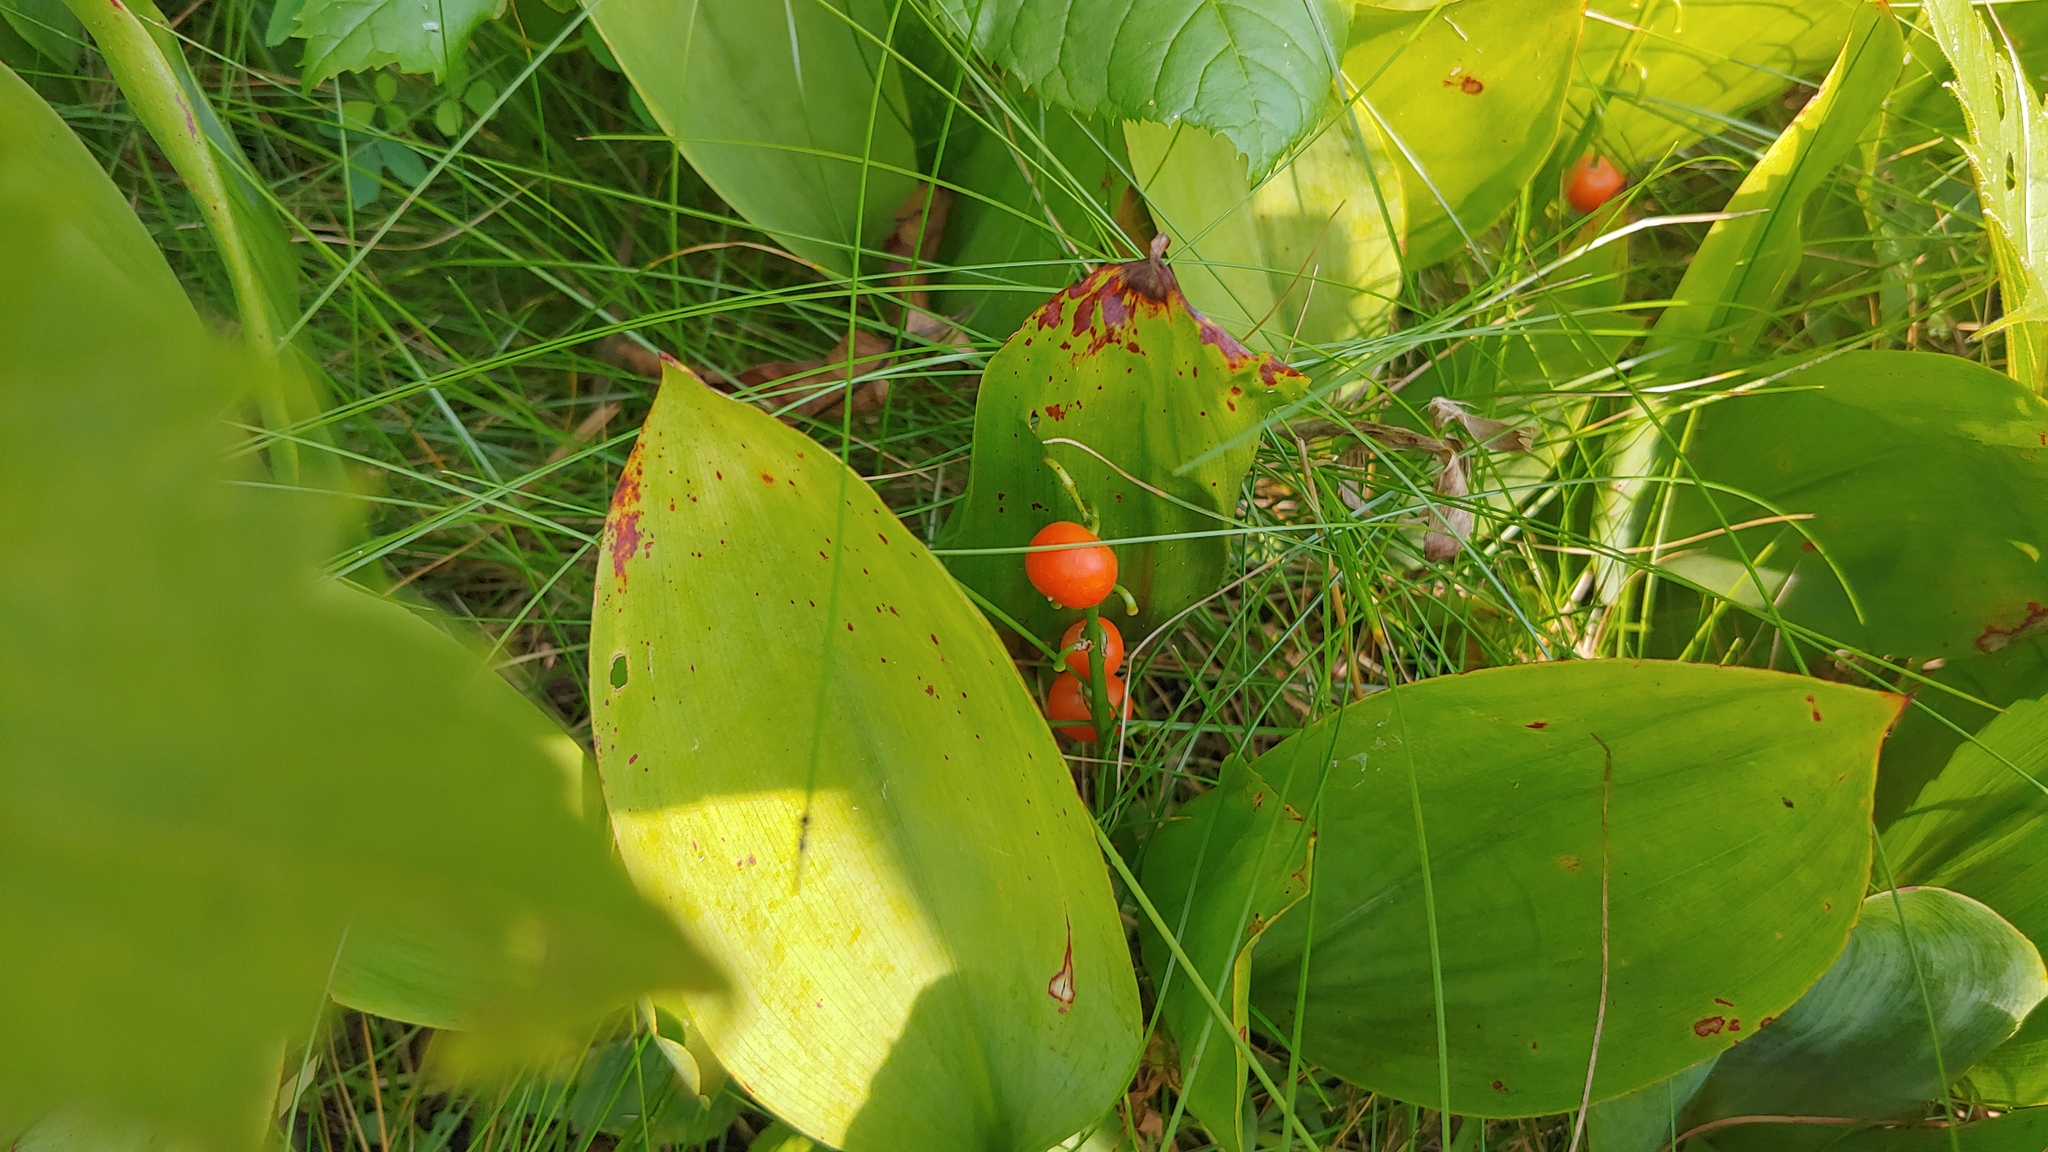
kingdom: Plantae
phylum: Tracheophyta
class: Liliopsida
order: Asparagales
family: Asparagaceae
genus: Convallaria
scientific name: Convallaria majalis
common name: Lily-of-the-valley
